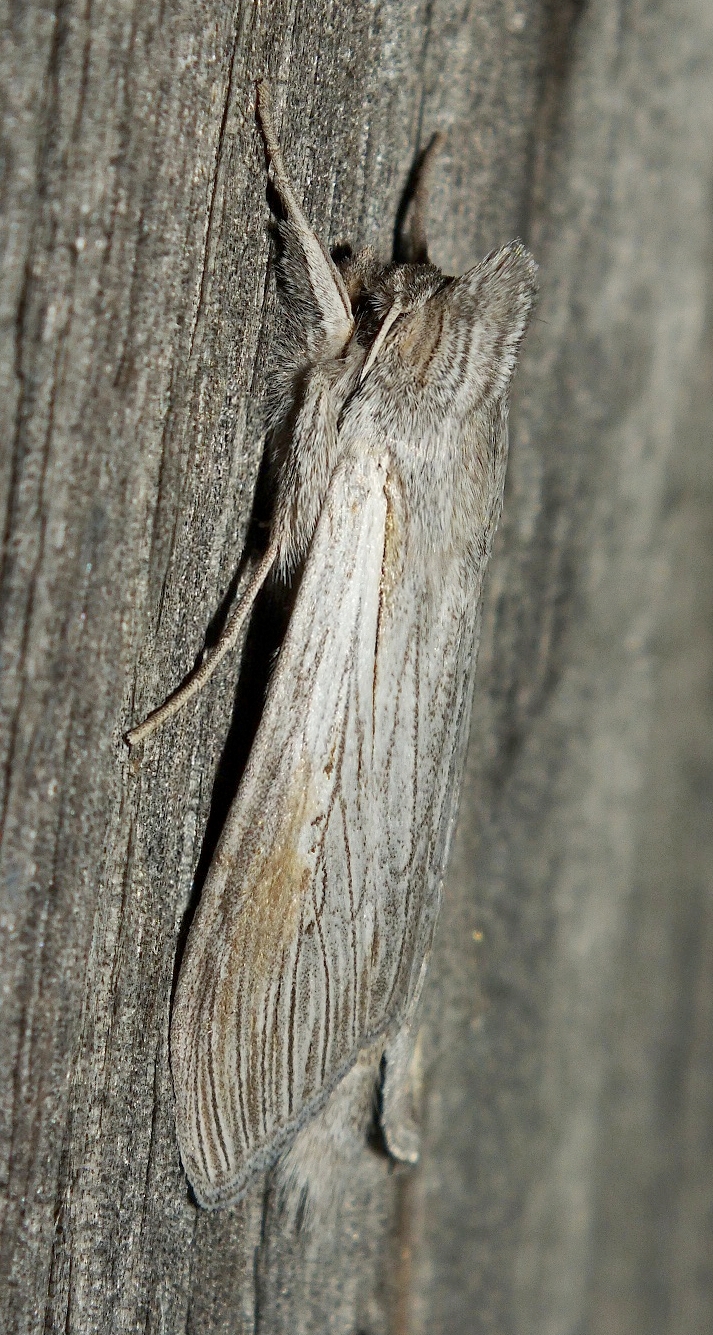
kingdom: Animalia
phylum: Arthropoda
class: Insecta
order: Lepidoptera
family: Noctuidae
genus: Cucullia
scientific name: Cucullia balsamitae
